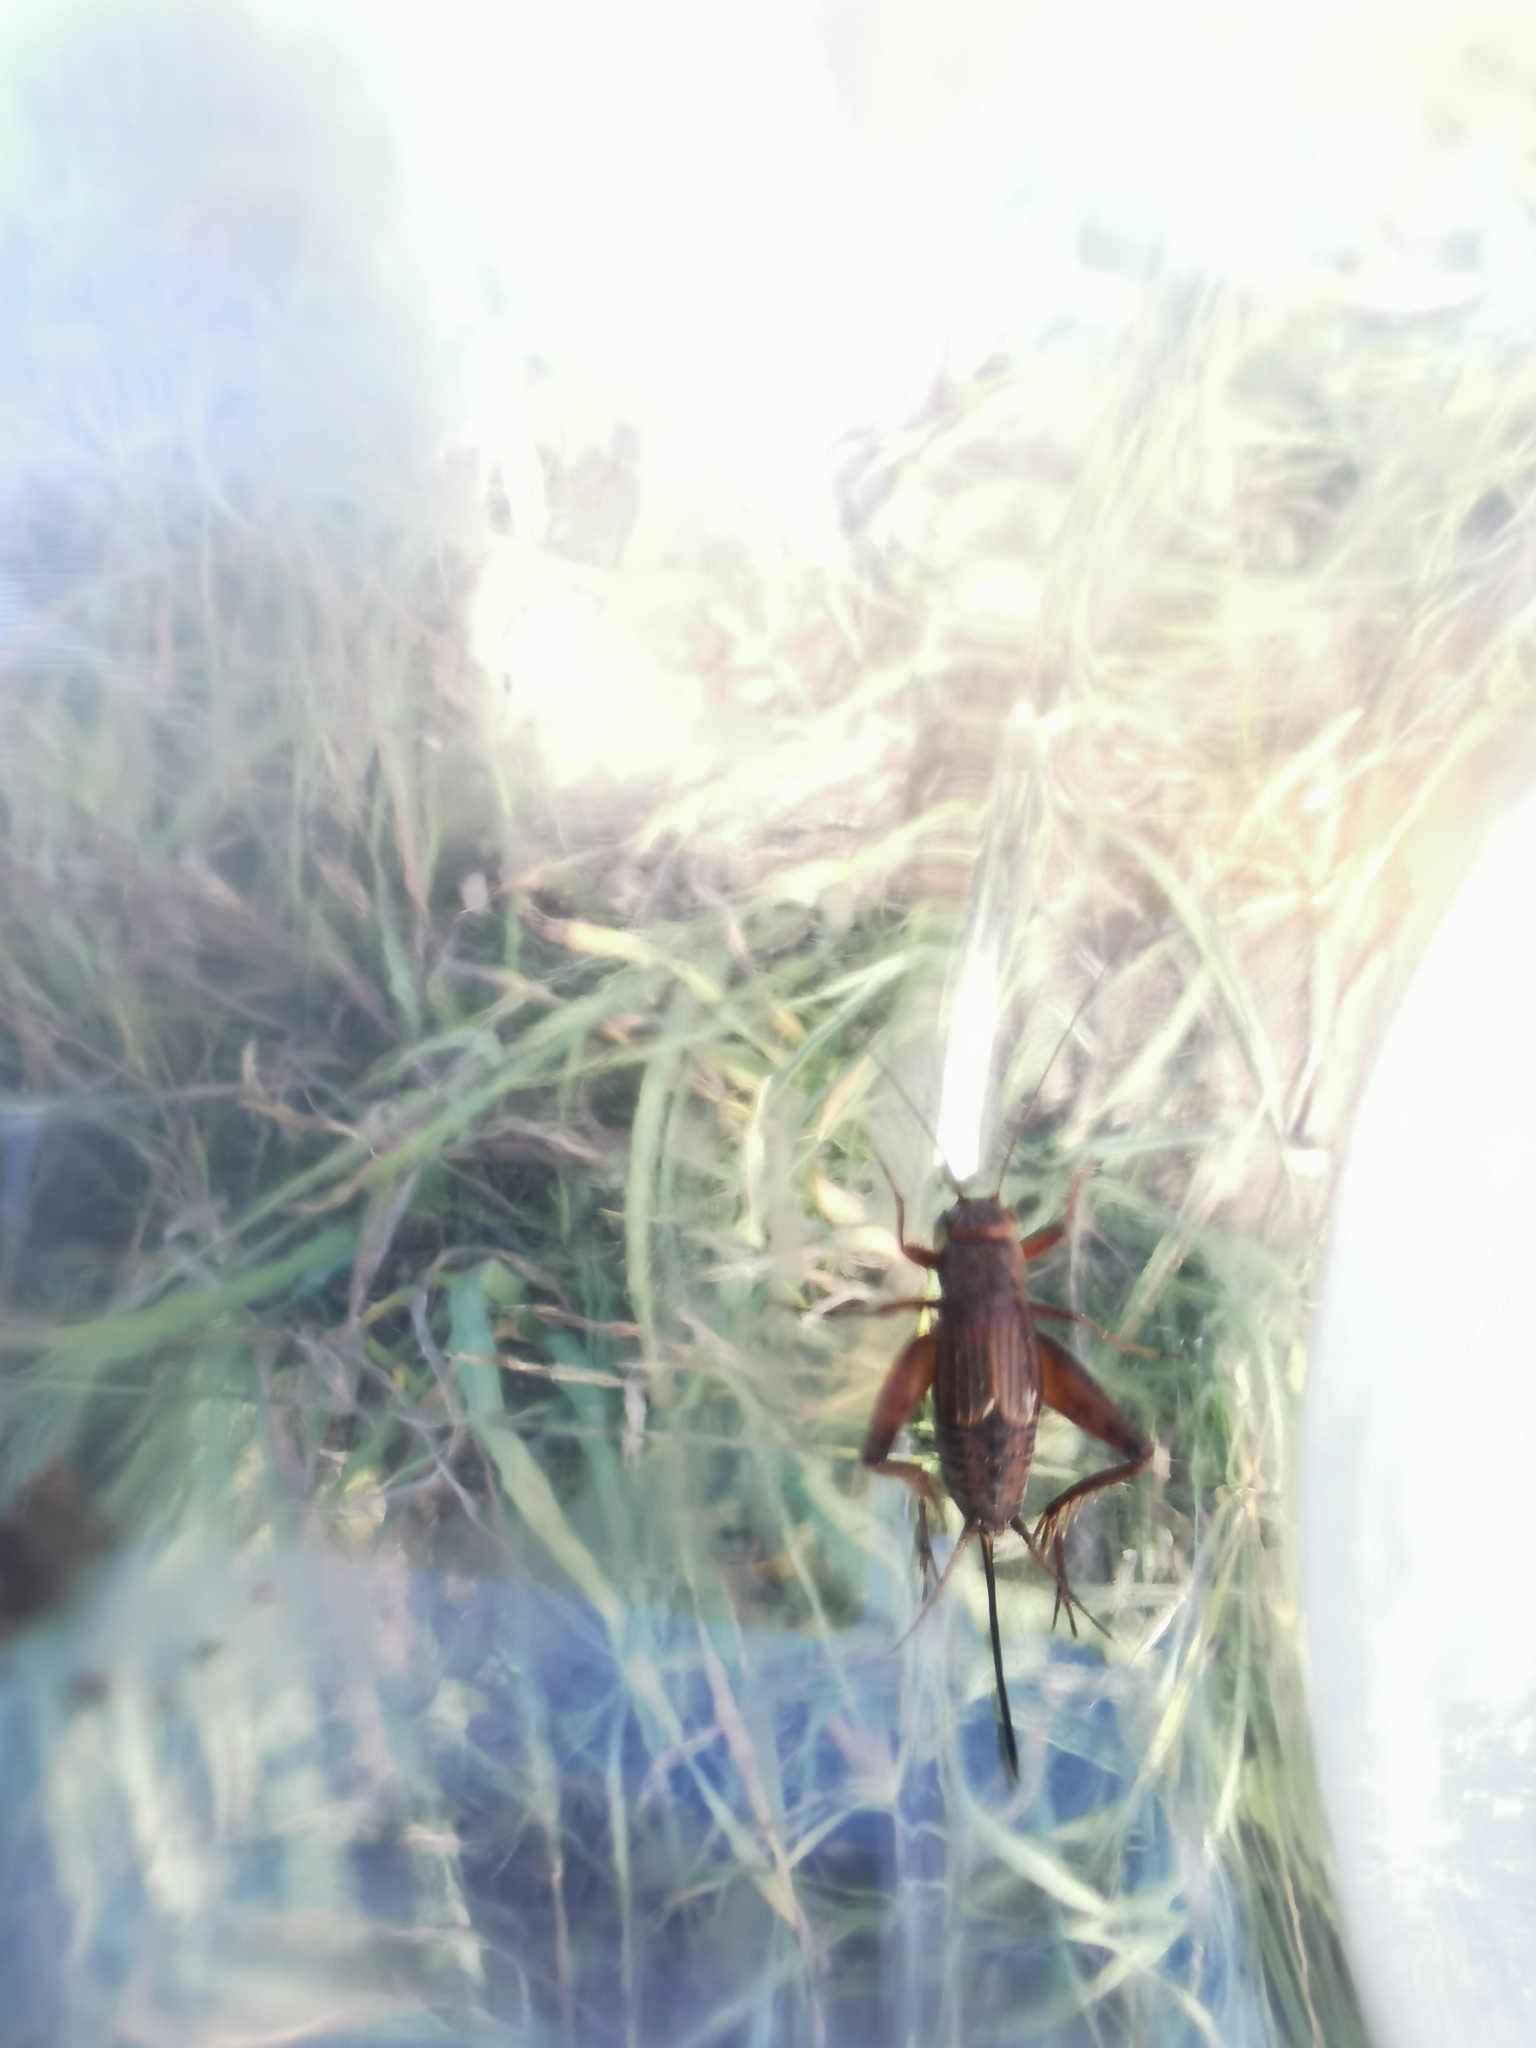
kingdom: Animalia
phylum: Arthropoda
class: Insecta
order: Orthoptera
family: Trigonidiidae
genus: Allonemobius
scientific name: Allonemobius fasciatus
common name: Striped ground cricket
